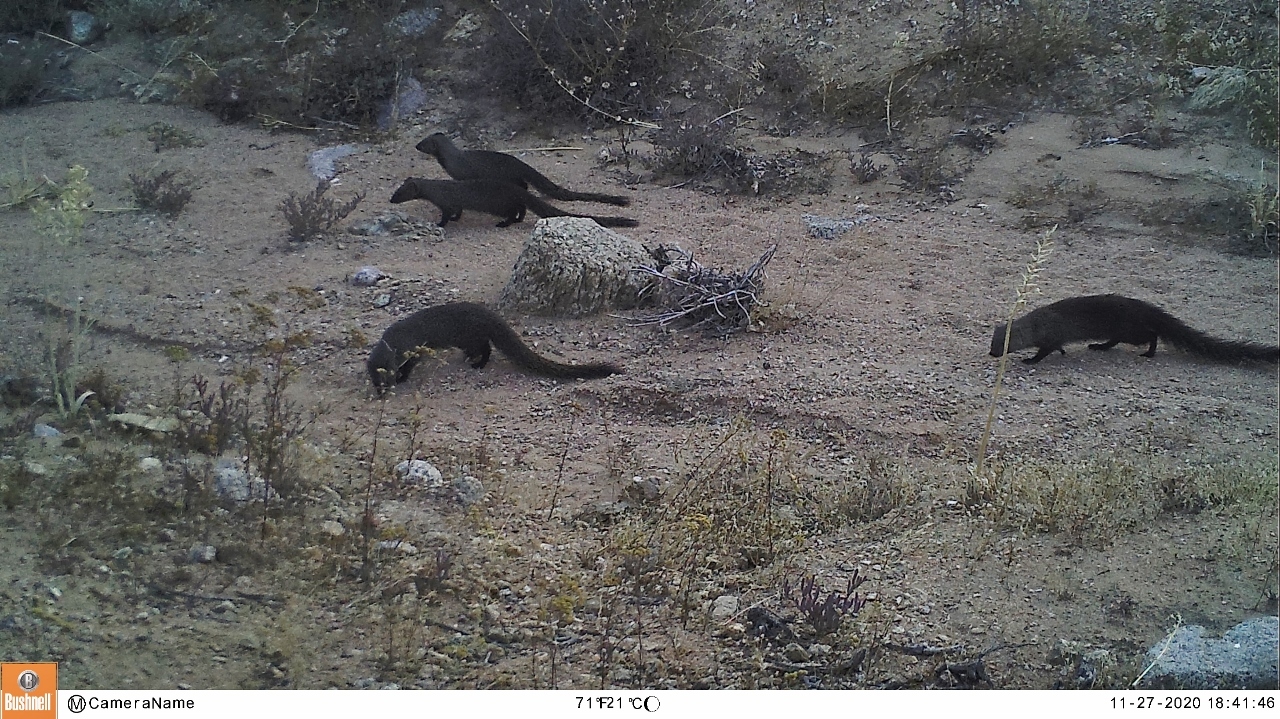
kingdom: Animalia
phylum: Chordata
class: Mammalia
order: Carnivora
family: Herpestidae
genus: Galerella
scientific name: Galerella pulverulenta
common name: Cape gray mongoose
